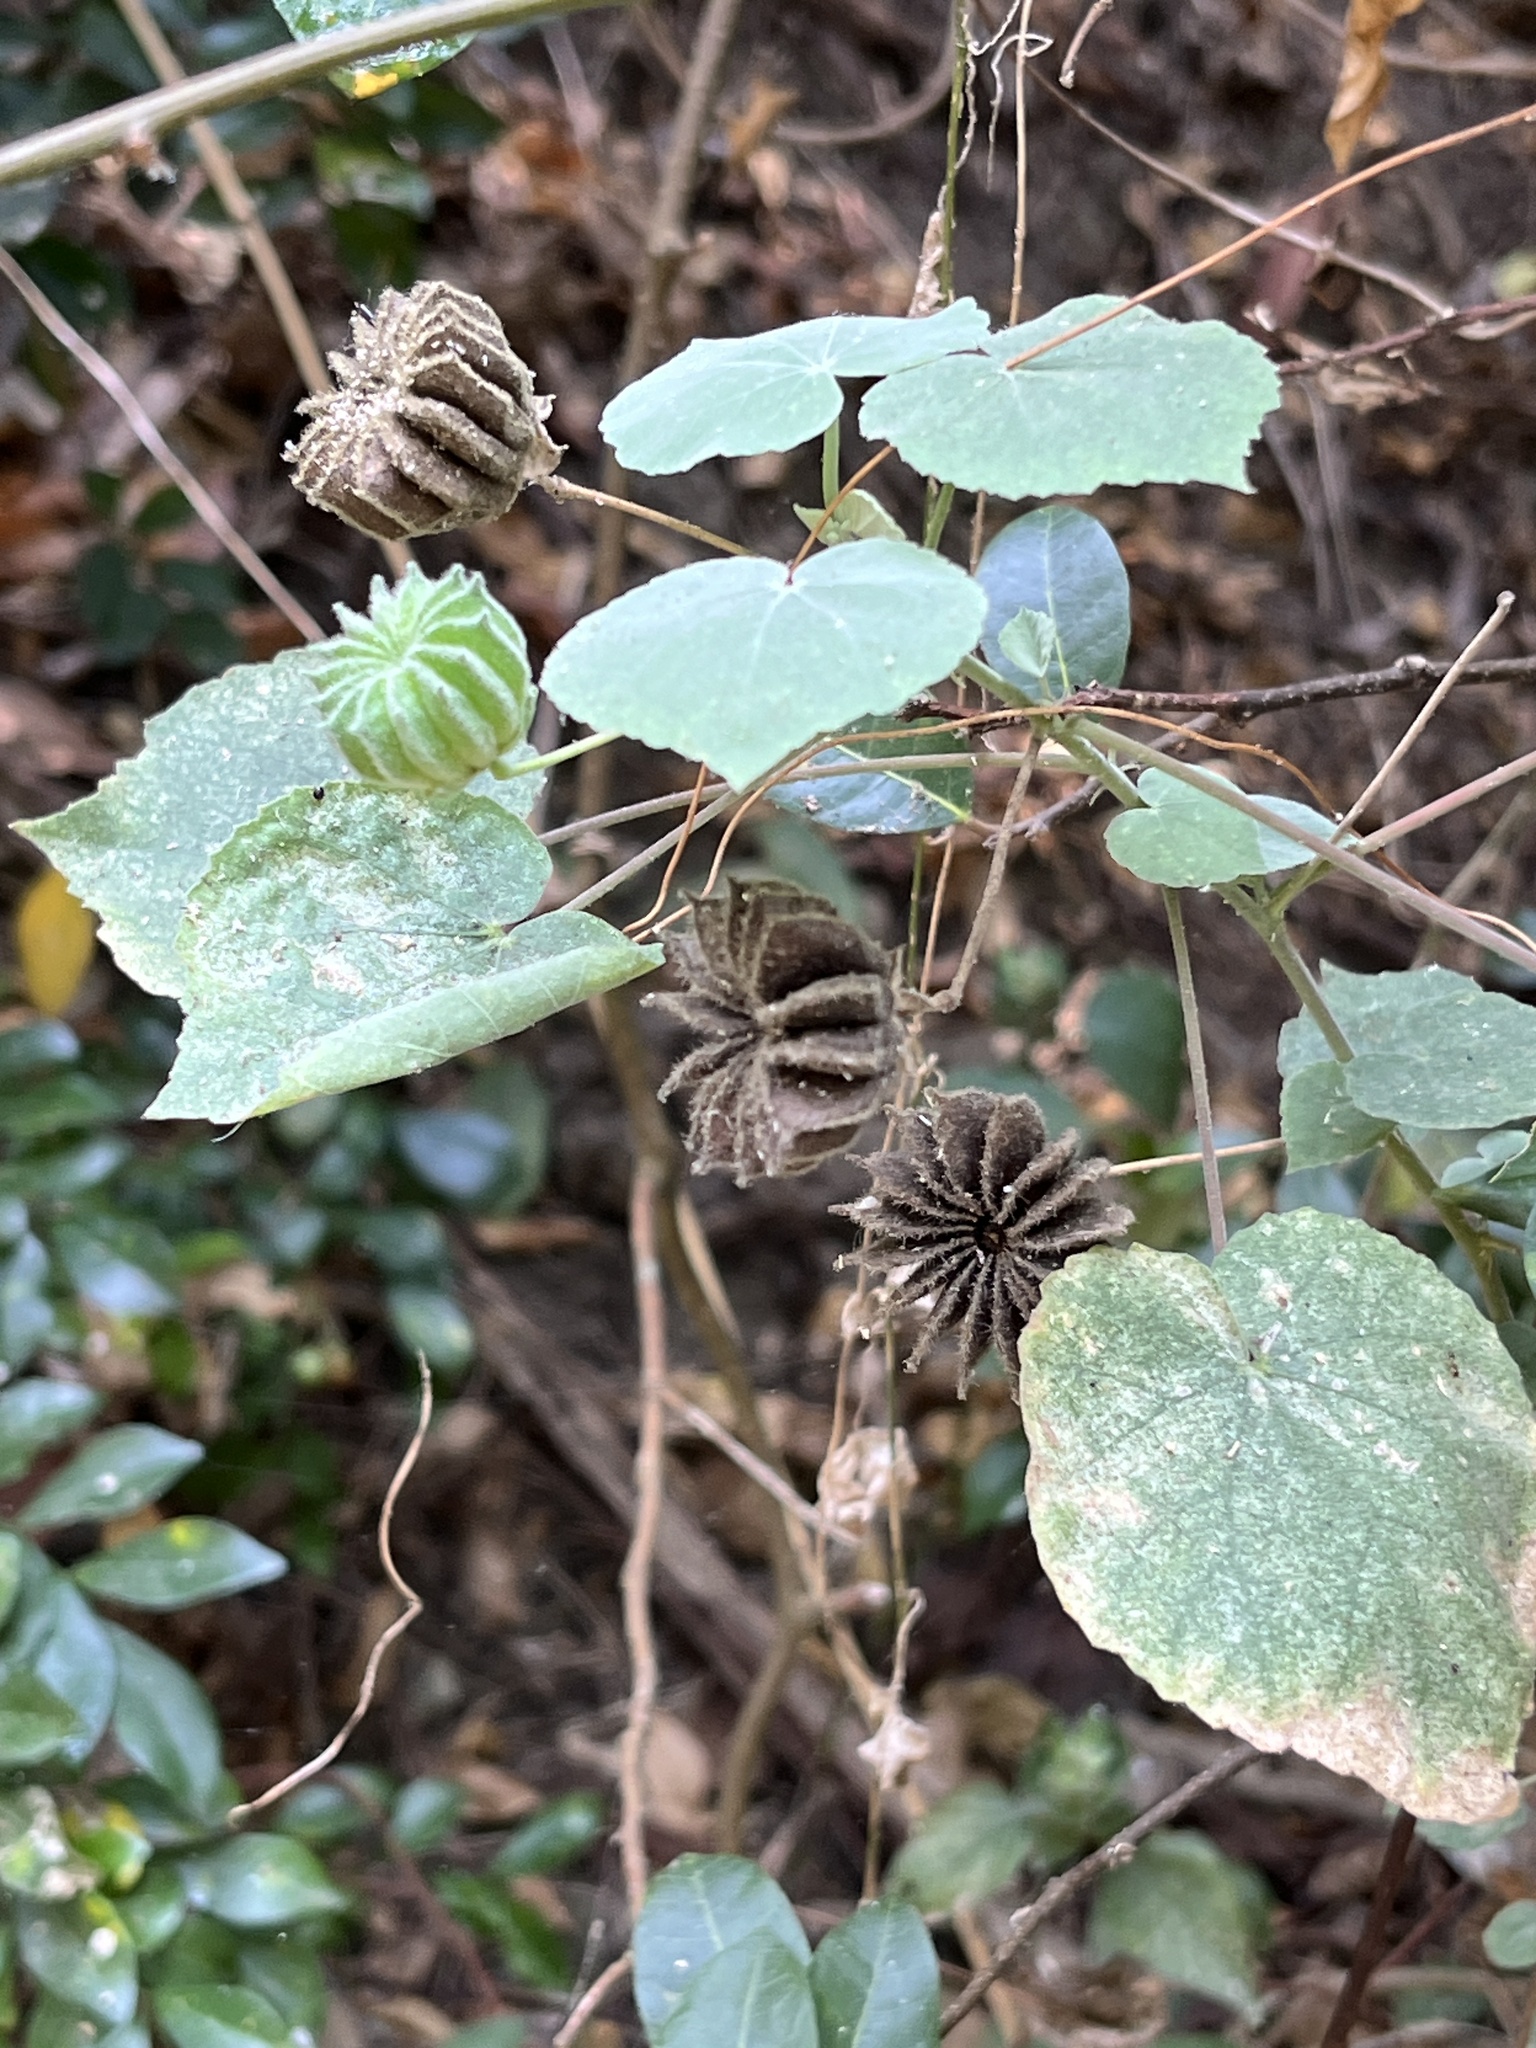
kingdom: Plantae
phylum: Tracheophyta
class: Magnoliopsida
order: Malvales
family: Malvaceae
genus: Abutilon
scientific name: Abutilon indicum
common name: Indian abutilon
